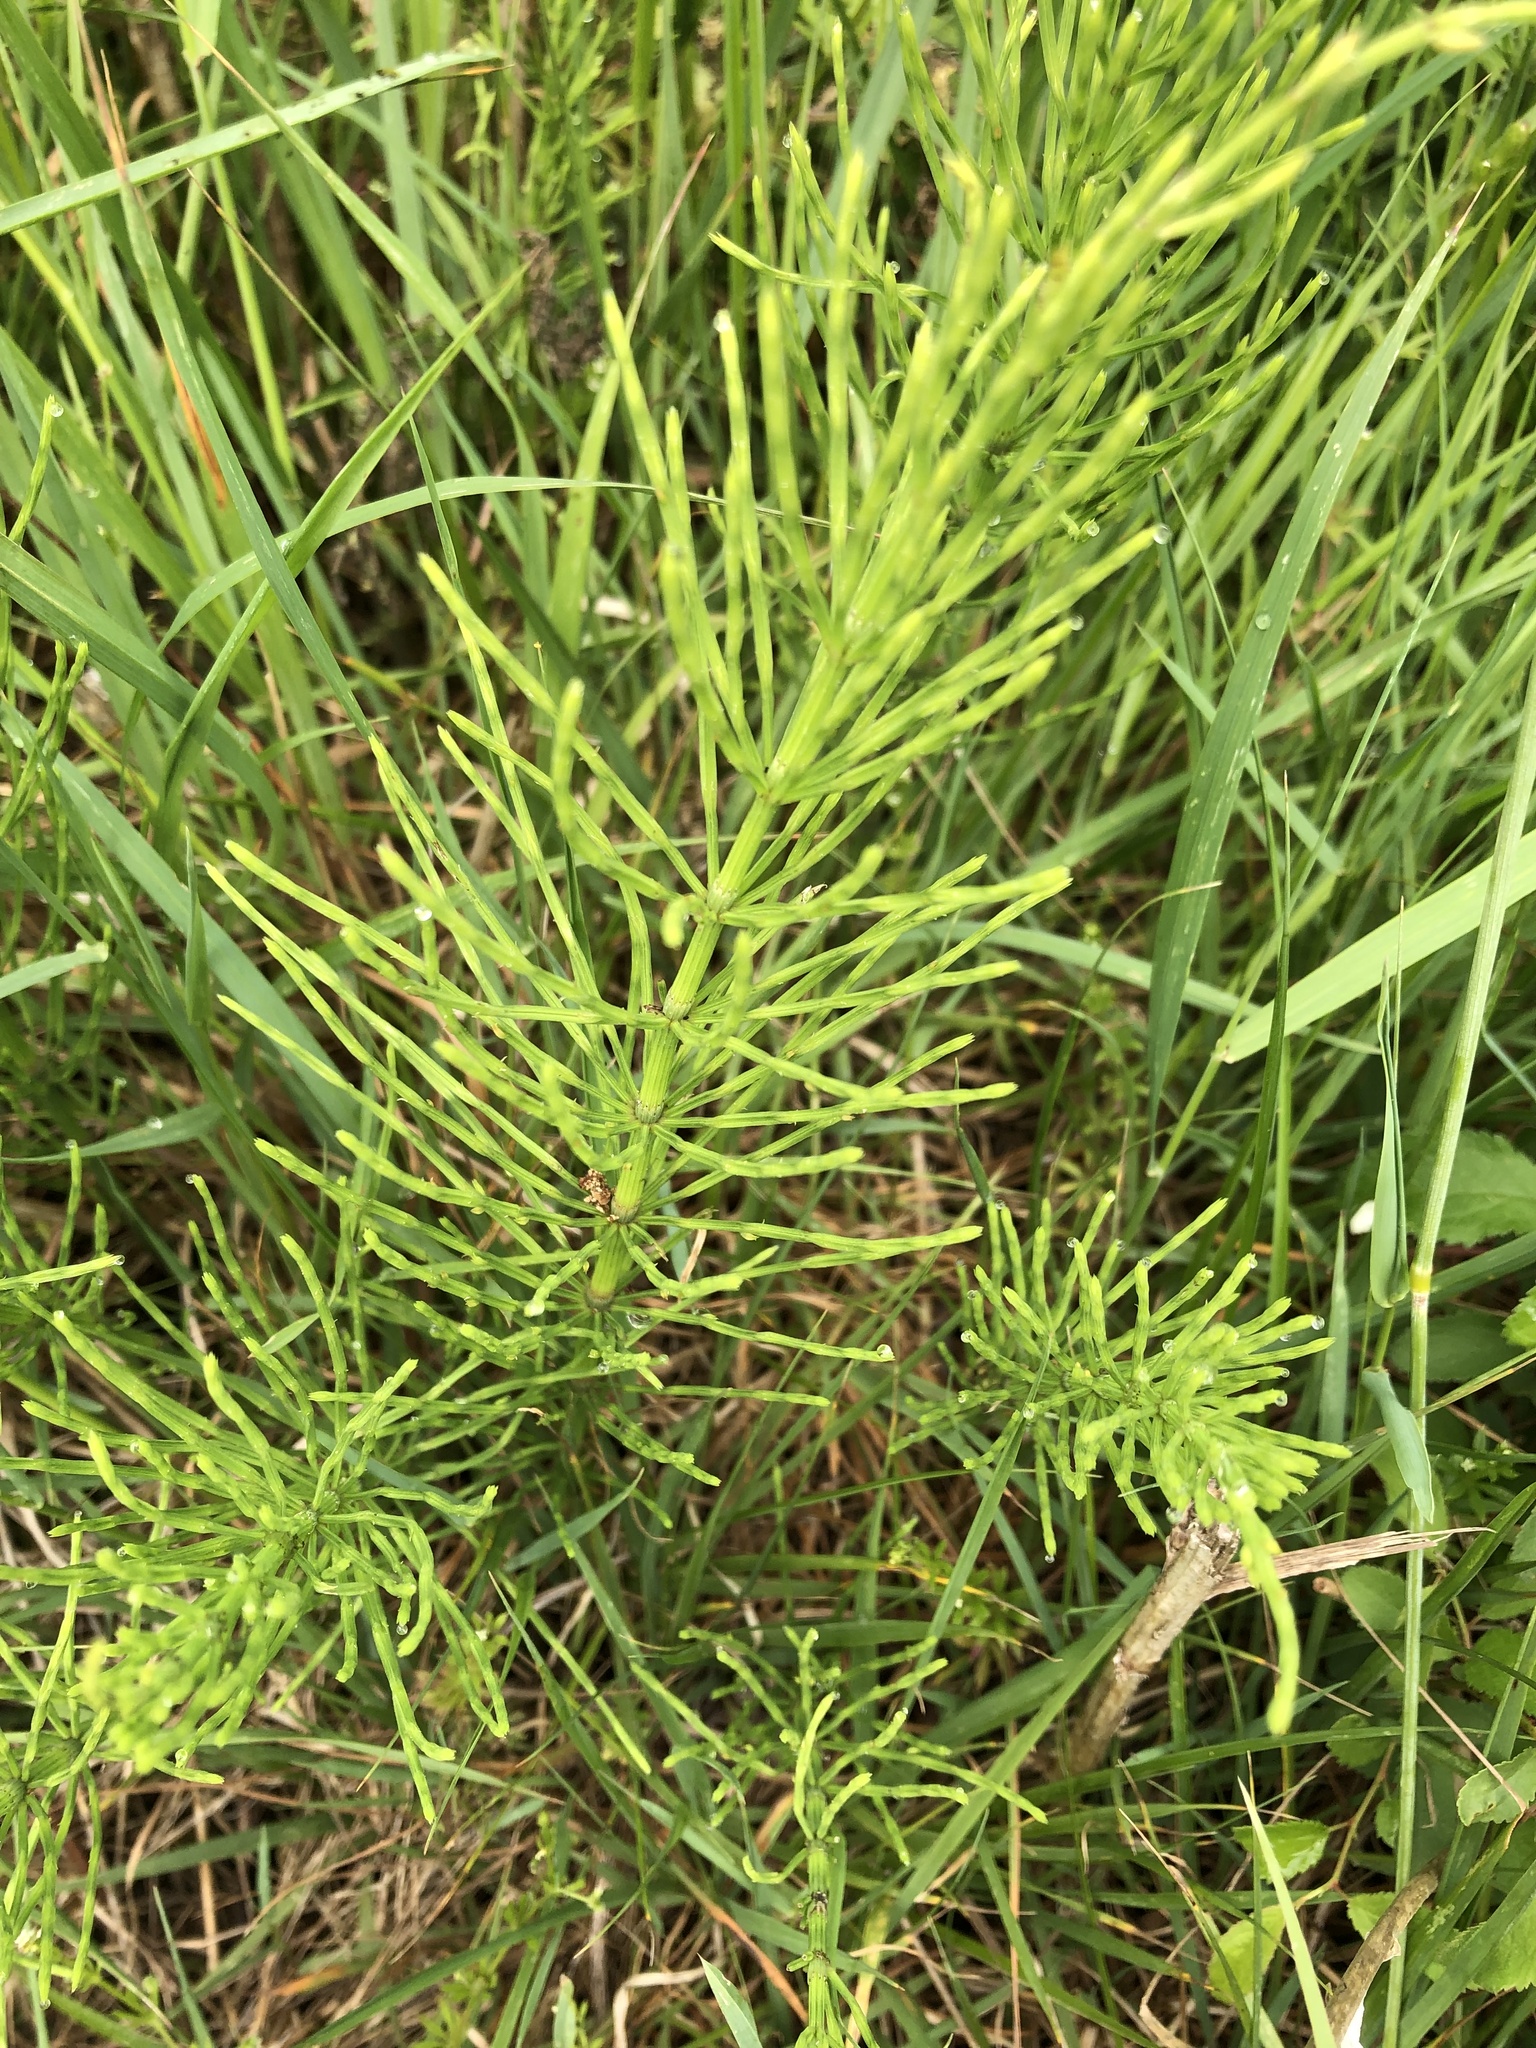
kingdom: Plantae
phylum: Tracheophyta
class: Polypodiopsida
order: Equisetales
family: Equisetaceae
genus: Equisetum
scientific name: Equisetum arvense
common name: Field horsetail
